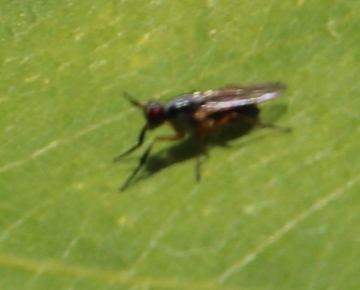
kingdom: Animalia
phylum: Arthropoda
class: Insecta
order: Diptera
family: Muscidae
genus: Anaphalantus
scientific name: Anaphalantus longicornis
